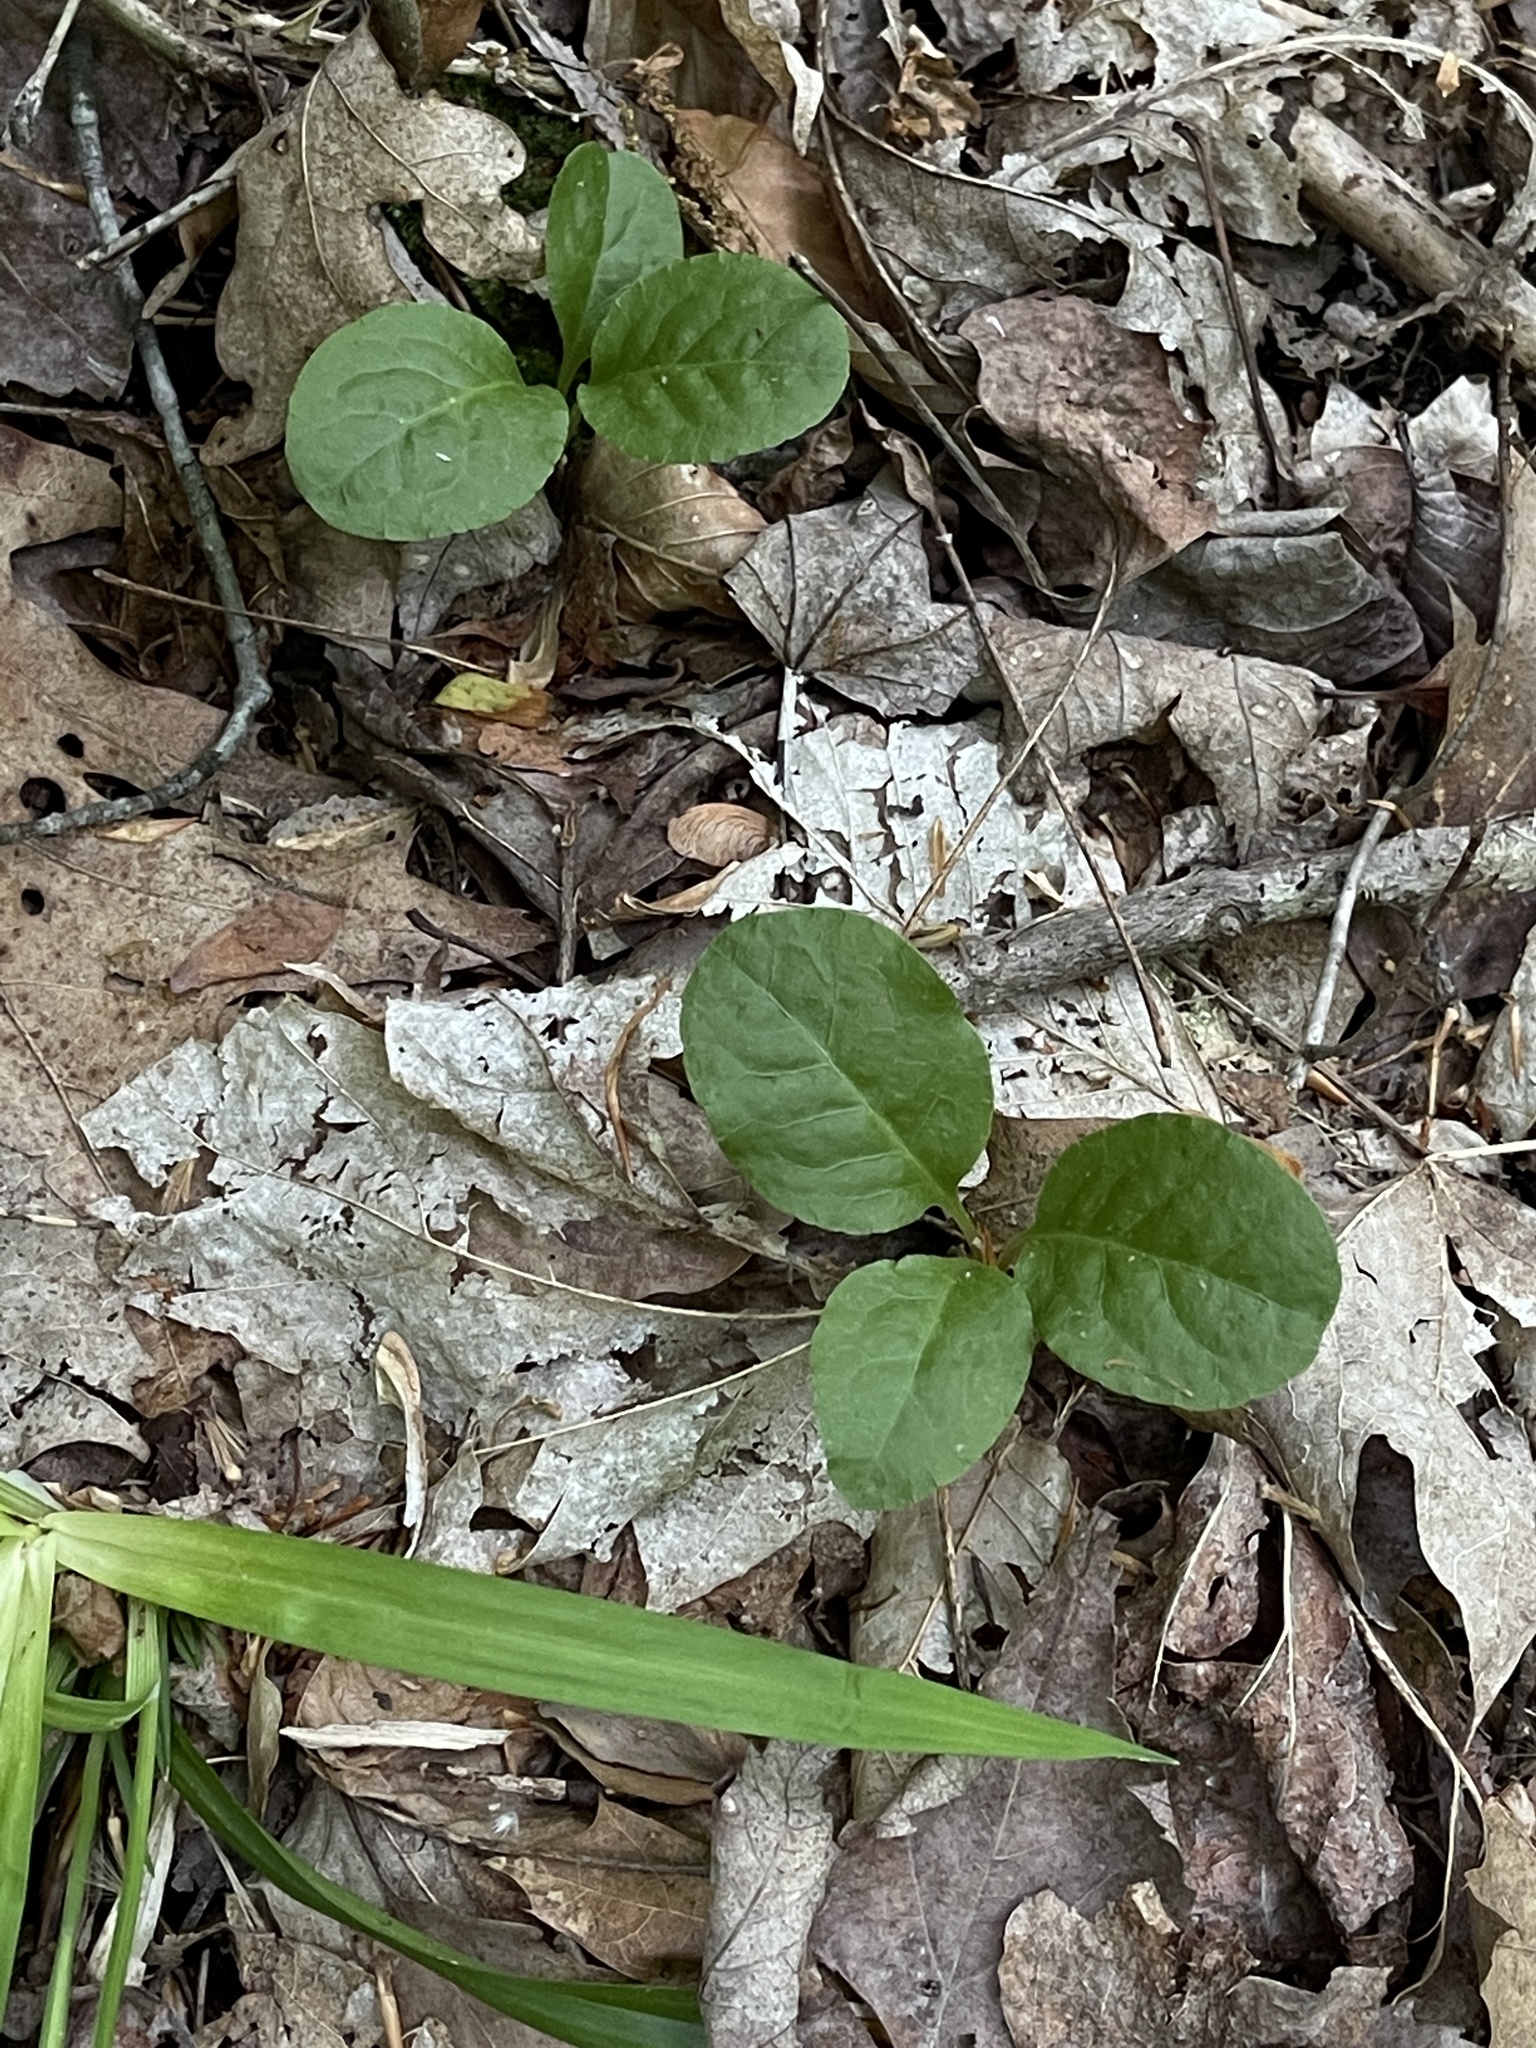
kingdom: Plantae
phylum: Tracheophyta
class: Magnoliopsida
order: Ericales
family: Ericaceae
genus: Pyrola
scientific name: Pyrola elliptica
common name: Shinleaf
